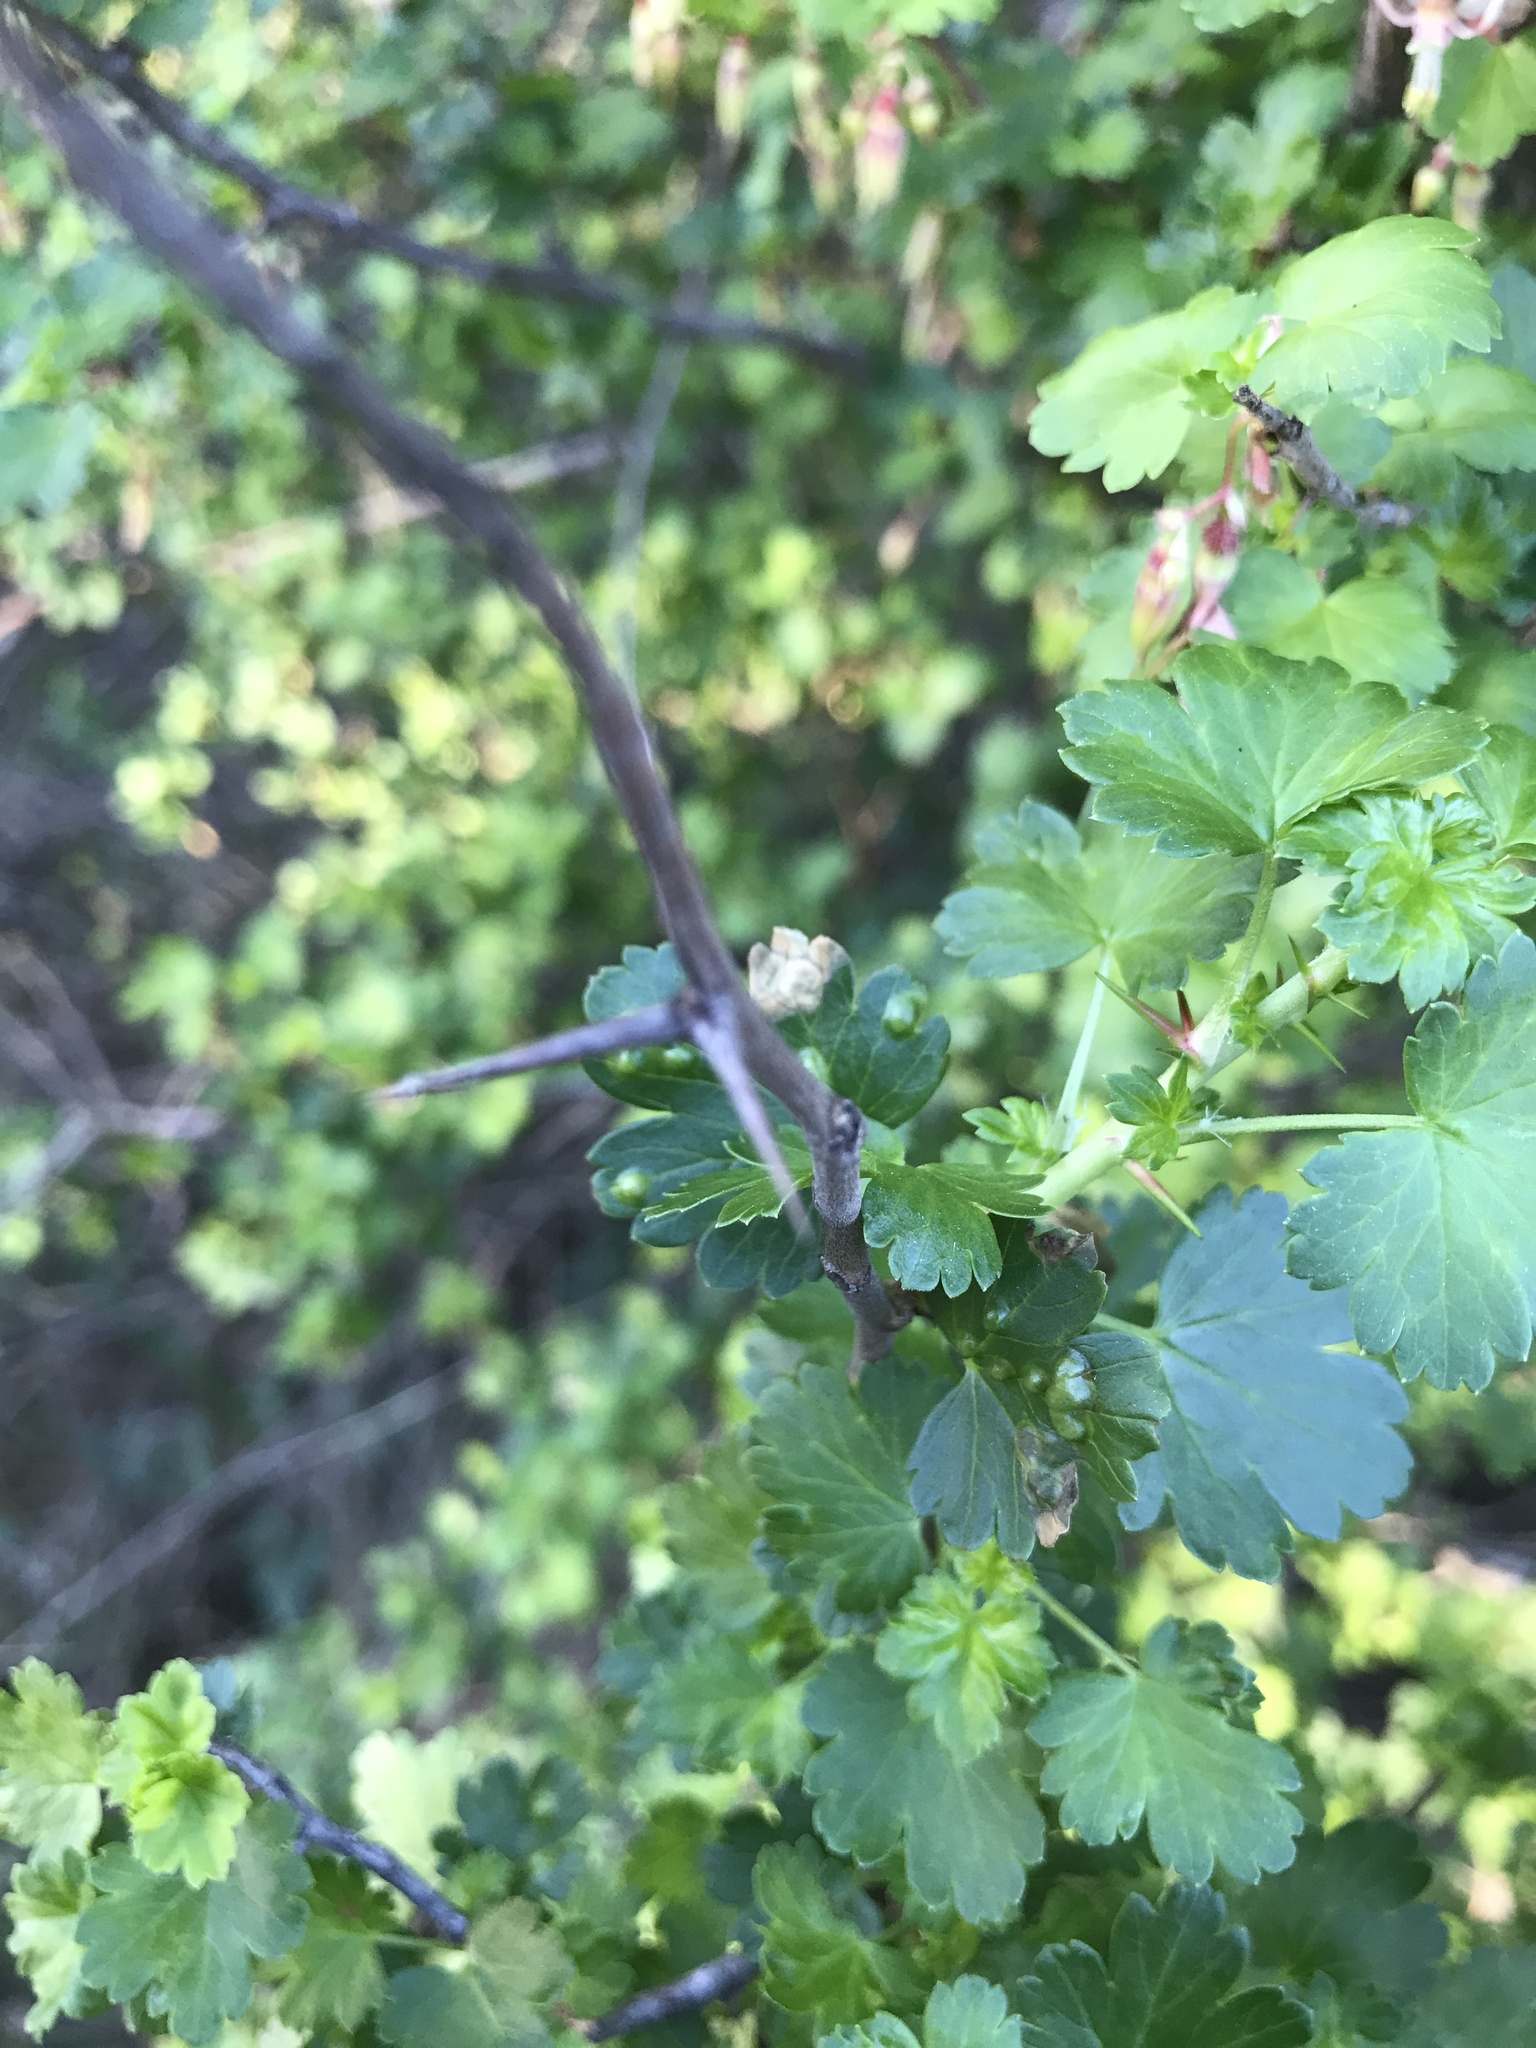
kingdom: Plantae
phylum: Tracheophyta
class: Magnoliopsida
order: Saxifragales
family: Grossulariaceae
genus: Ribes
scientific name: Ribes californicum
